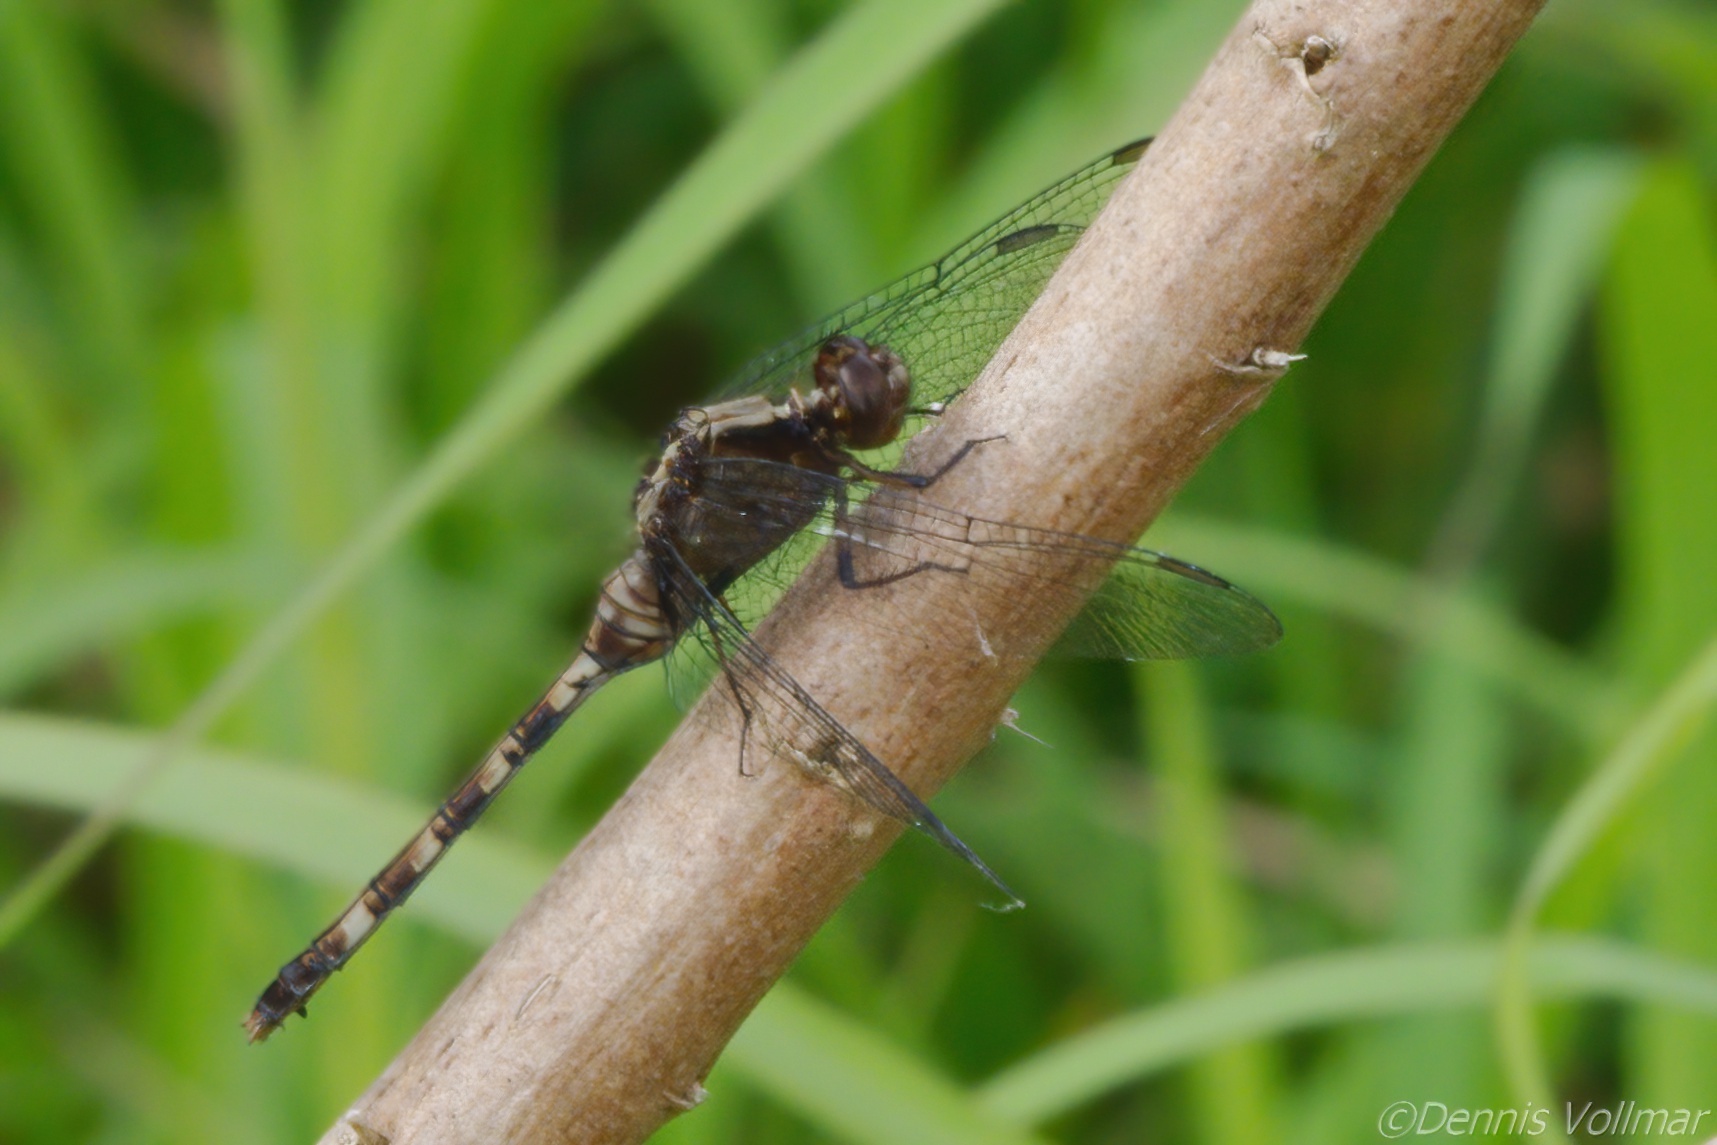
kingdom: Animalia
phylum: Arthropoda
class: Insecta
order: Odonata
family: Libellulidae
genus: Erythemis
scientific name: Erythemis plebeja
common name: Pin-tailed pondhawk
